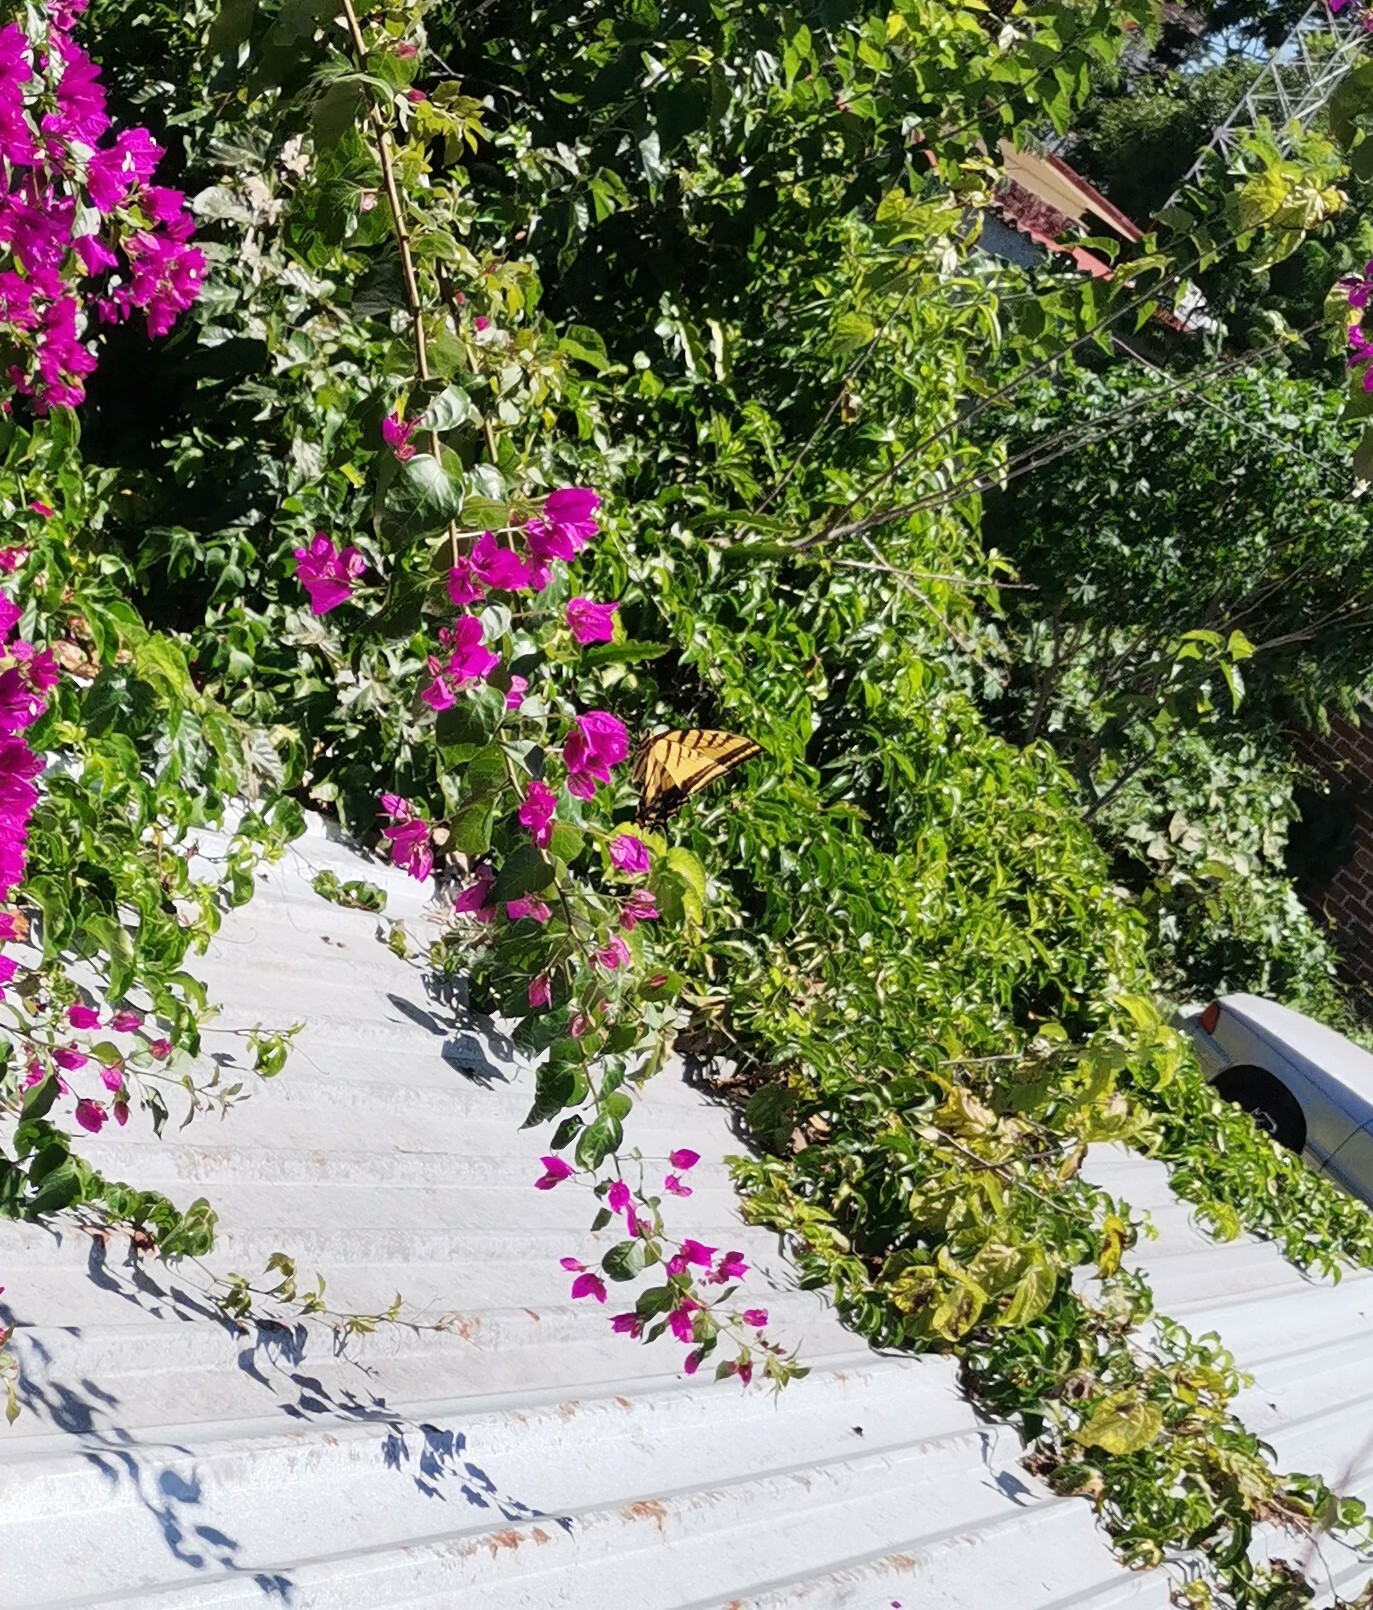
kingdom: Animalia
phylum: Arthropoda
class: Insecta
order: Lepidoptera
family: Papilionidae
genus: Papilio
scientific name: Papilio multicaudata
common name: Two-tailed tiger swallowtail
